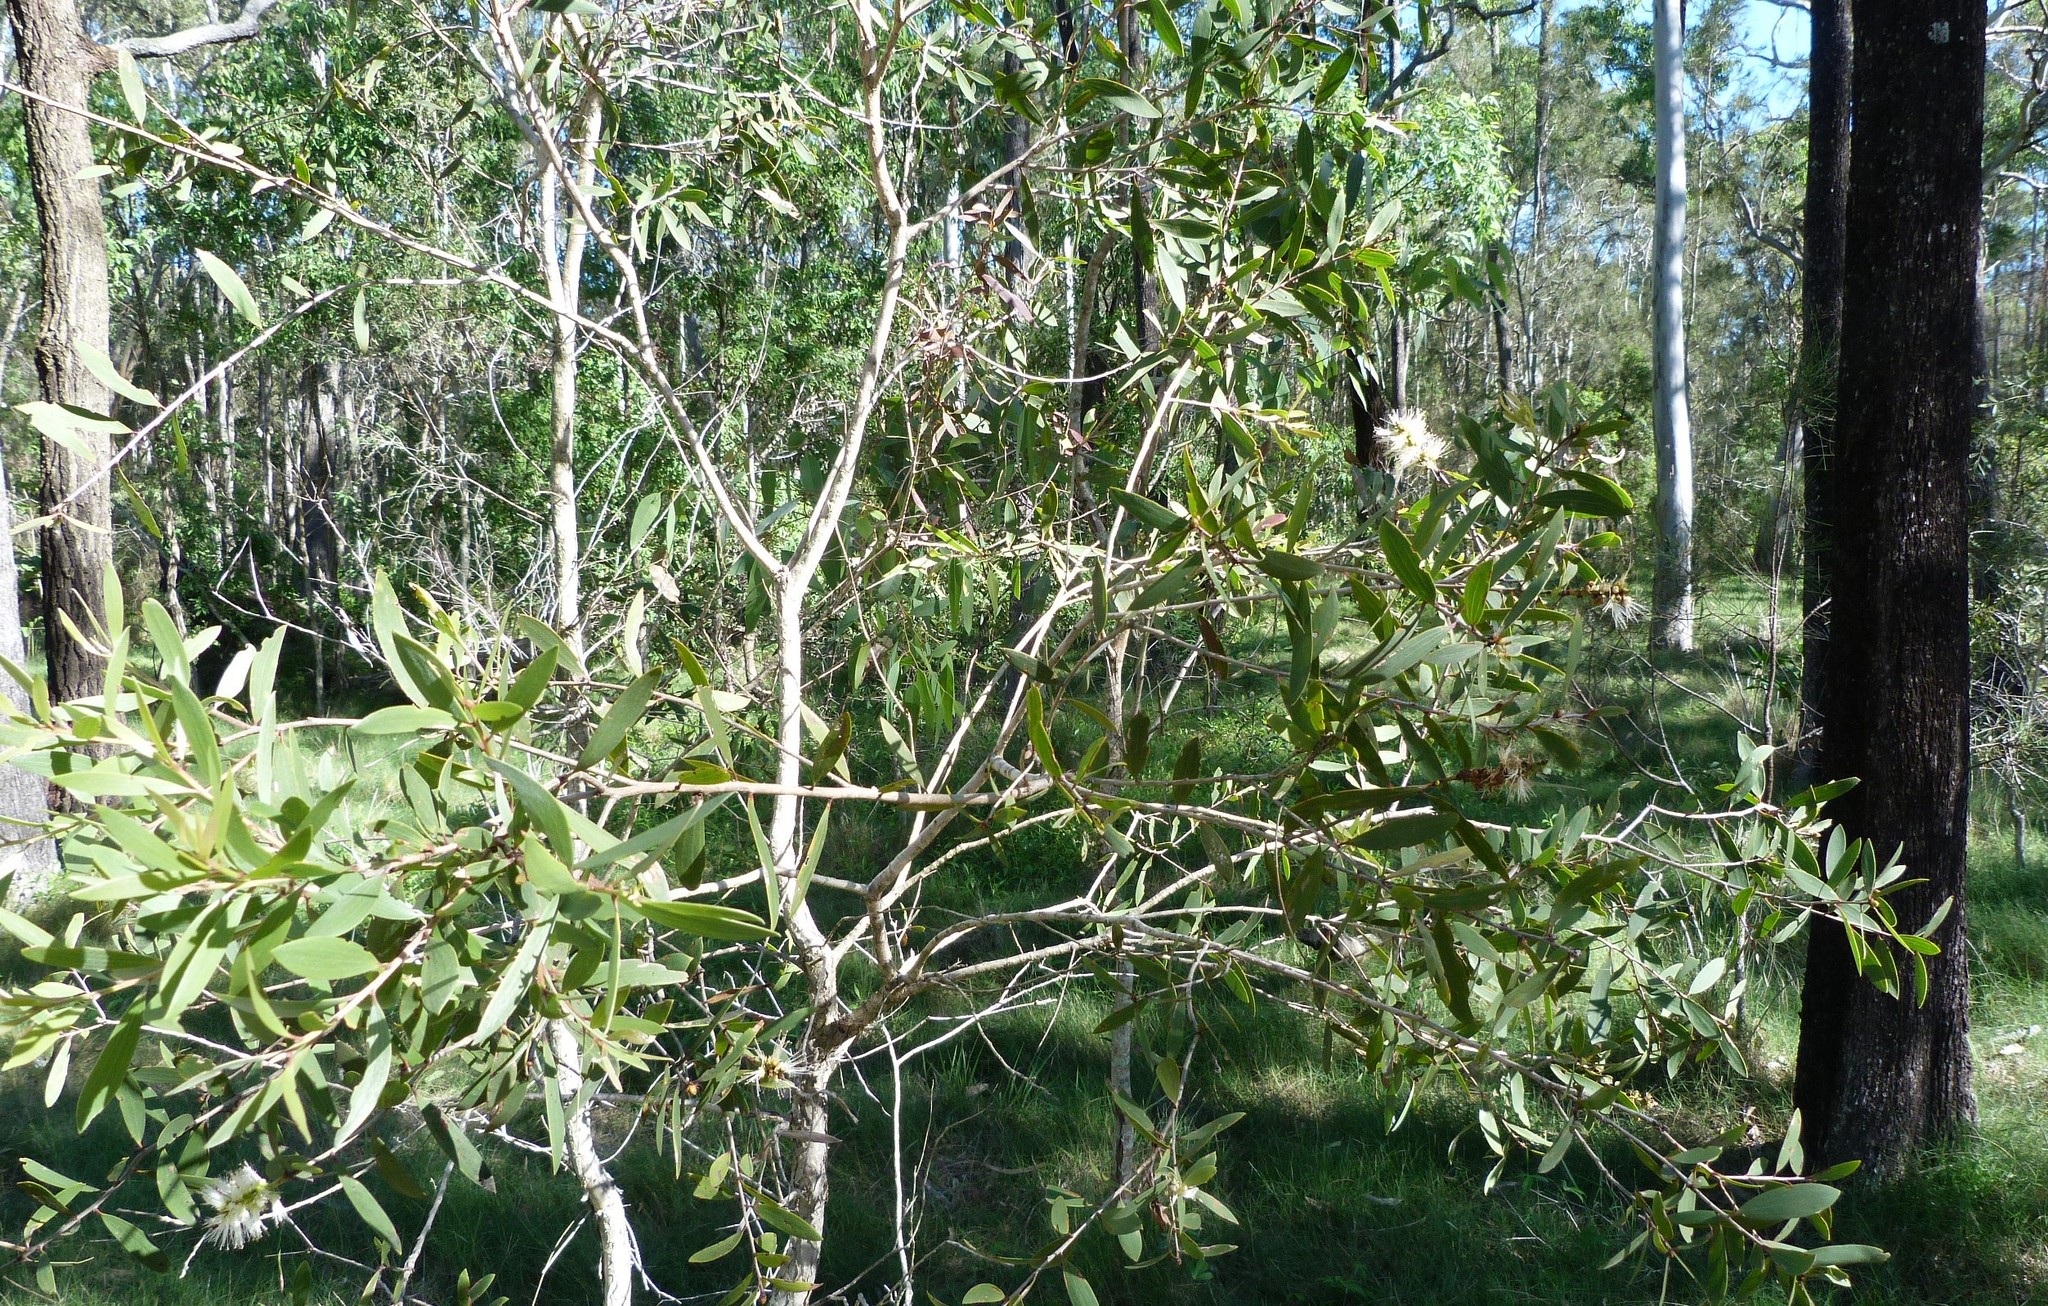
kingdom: Plantae
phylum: Tracheophyta
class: Magnoliopsida
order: Myrtales
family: Myrtaceae
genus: Melaleuca
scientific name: Melaleuca quinquenervia
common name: Punktree
